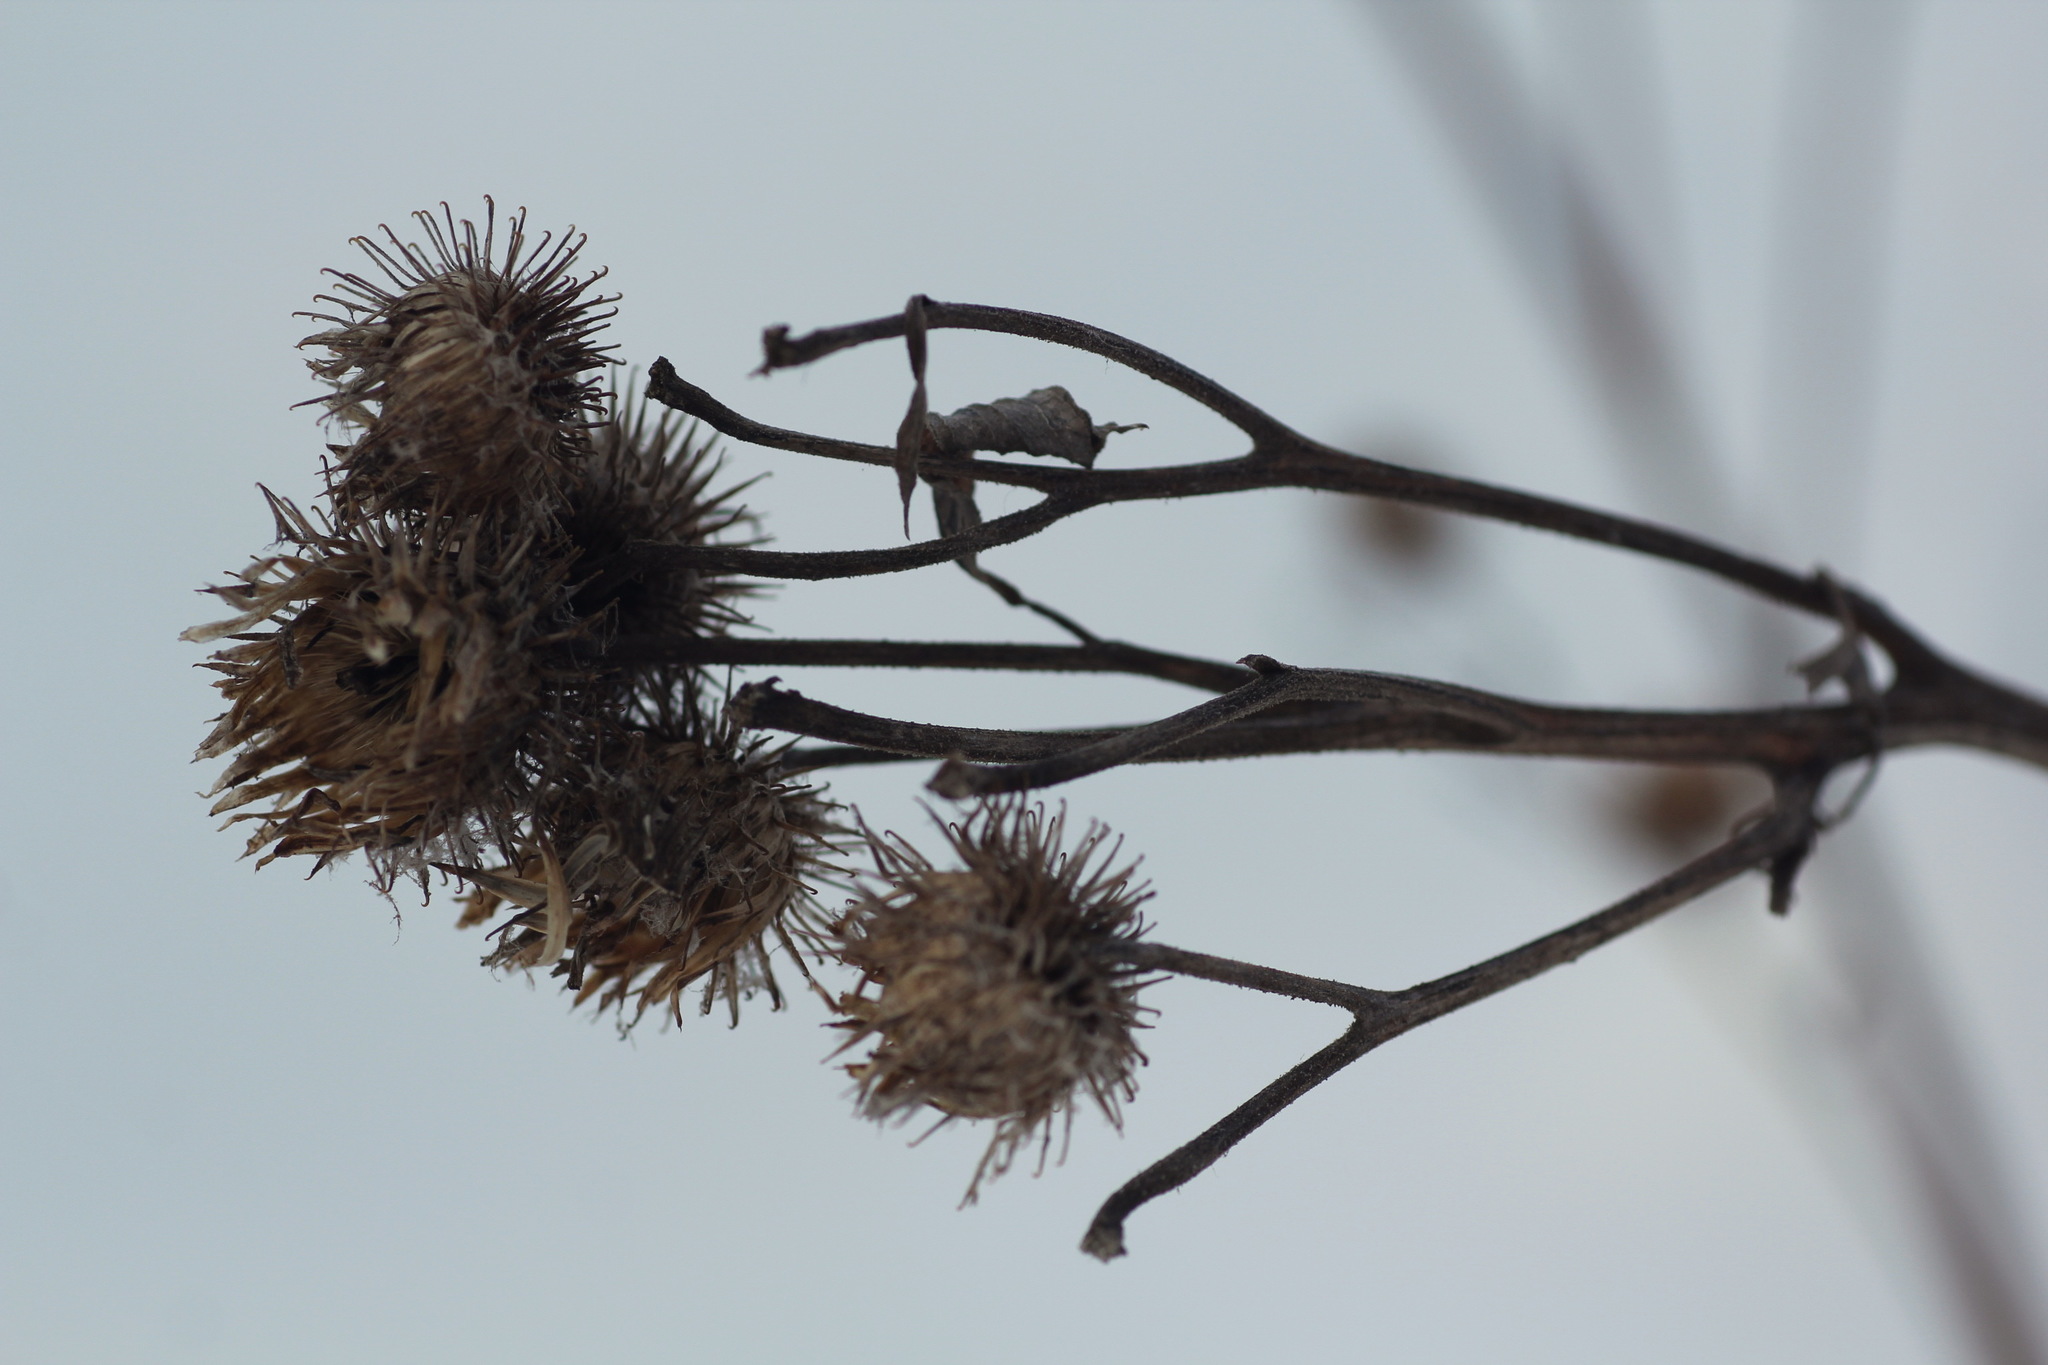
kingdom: Plantae
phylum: Tracheophyta
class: Magnoliopsida
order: Asterales
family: Asteraceae
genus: Arctium
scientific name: Arctium tomentosum
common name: Woolly burdock
